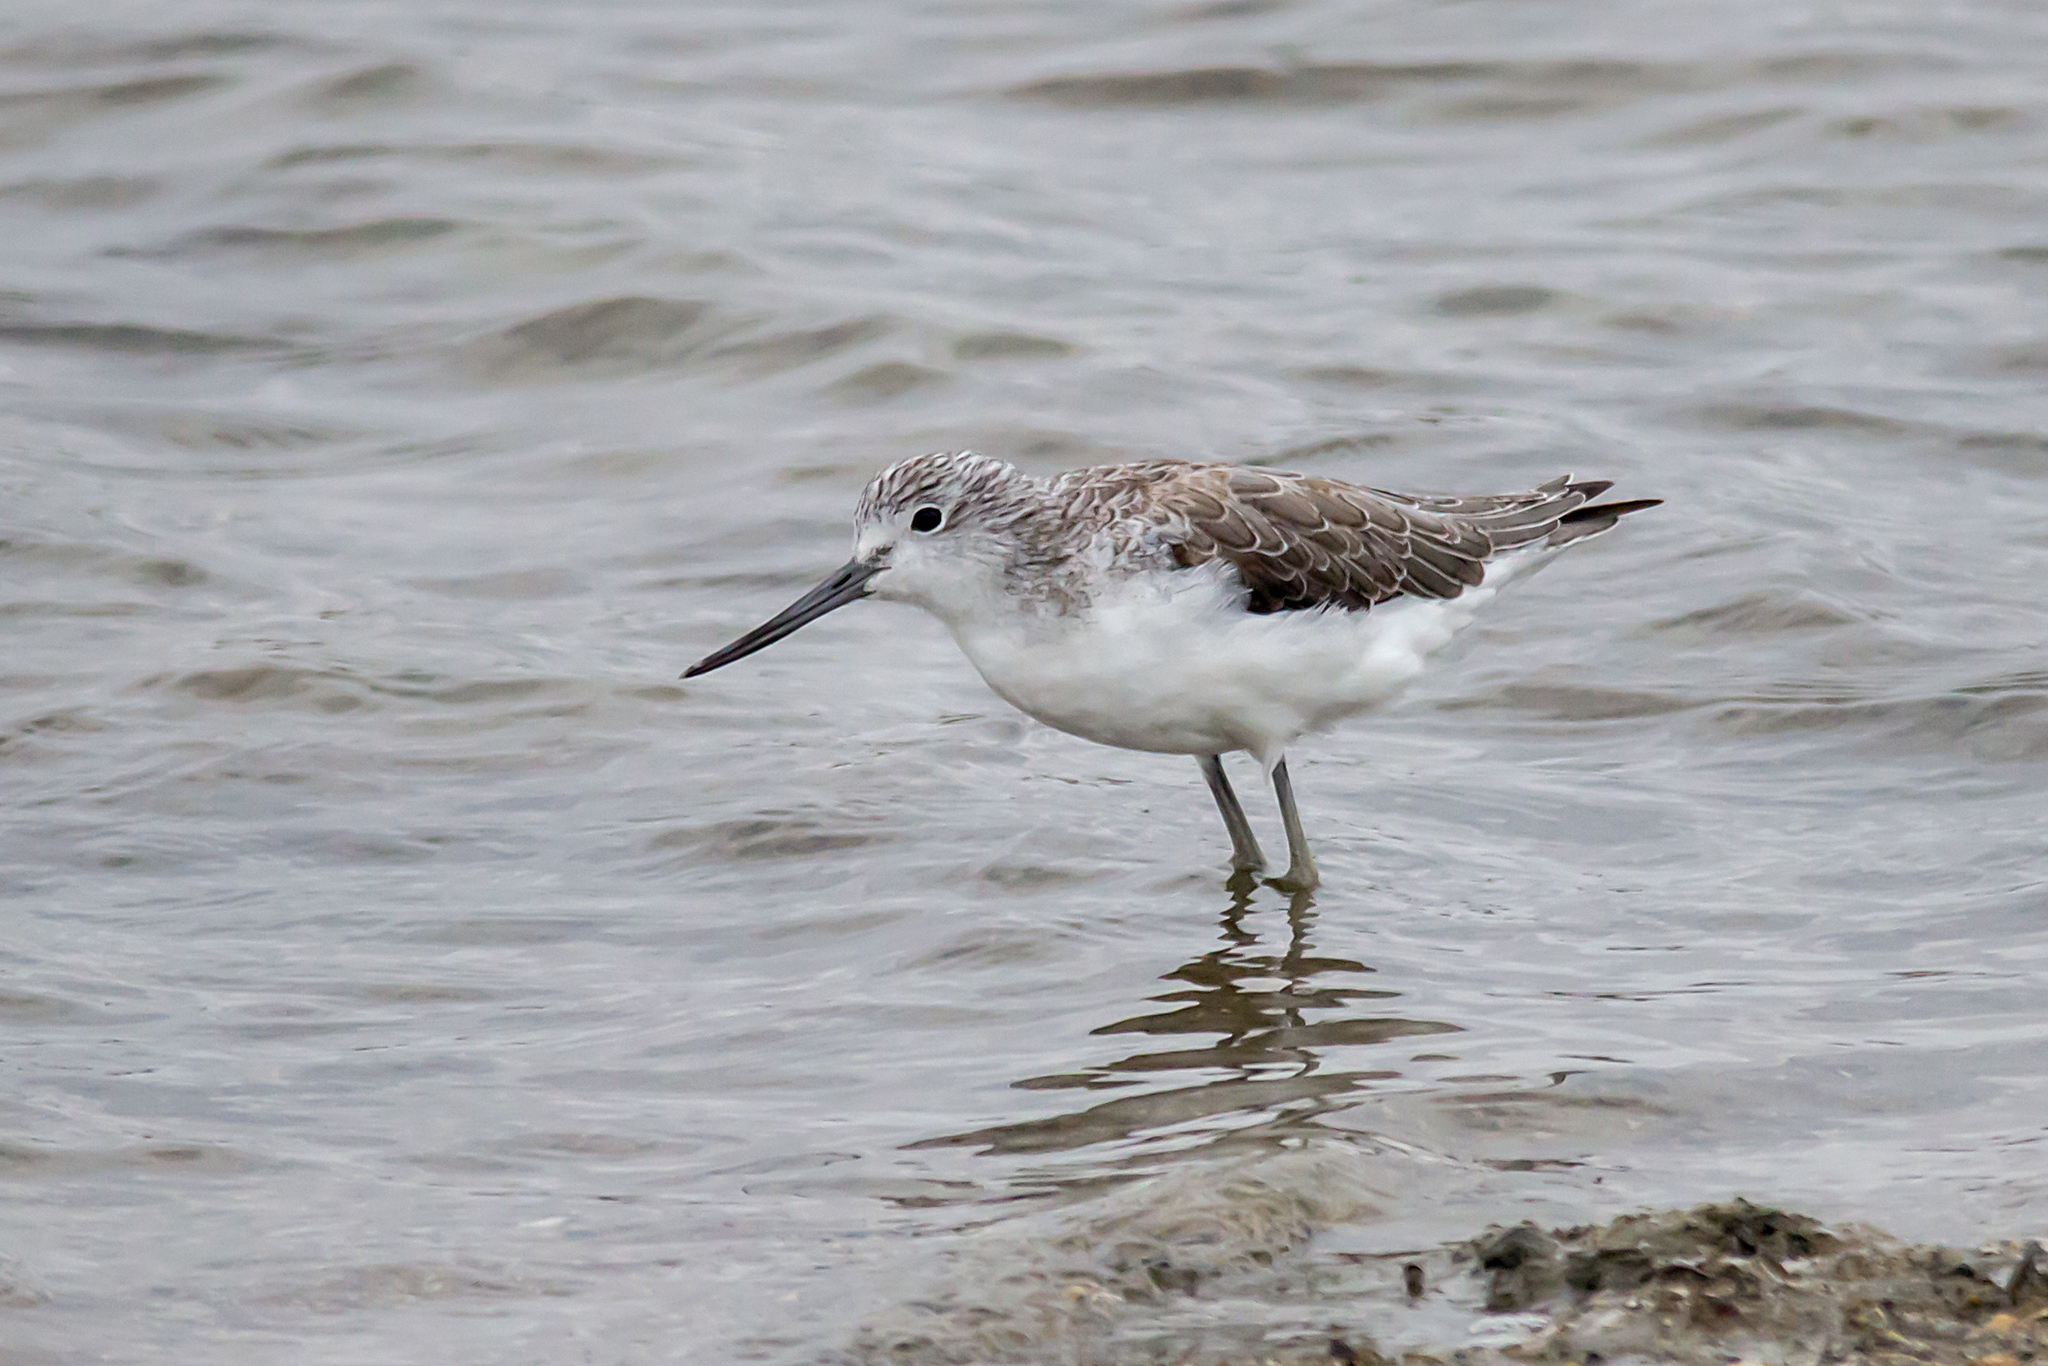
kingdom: Animalia
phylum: Chordata
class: Aves
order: Charadriiformes
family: Scolopacidae
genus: Tringa
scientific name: Tringa nebularia
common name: Common greenshank
